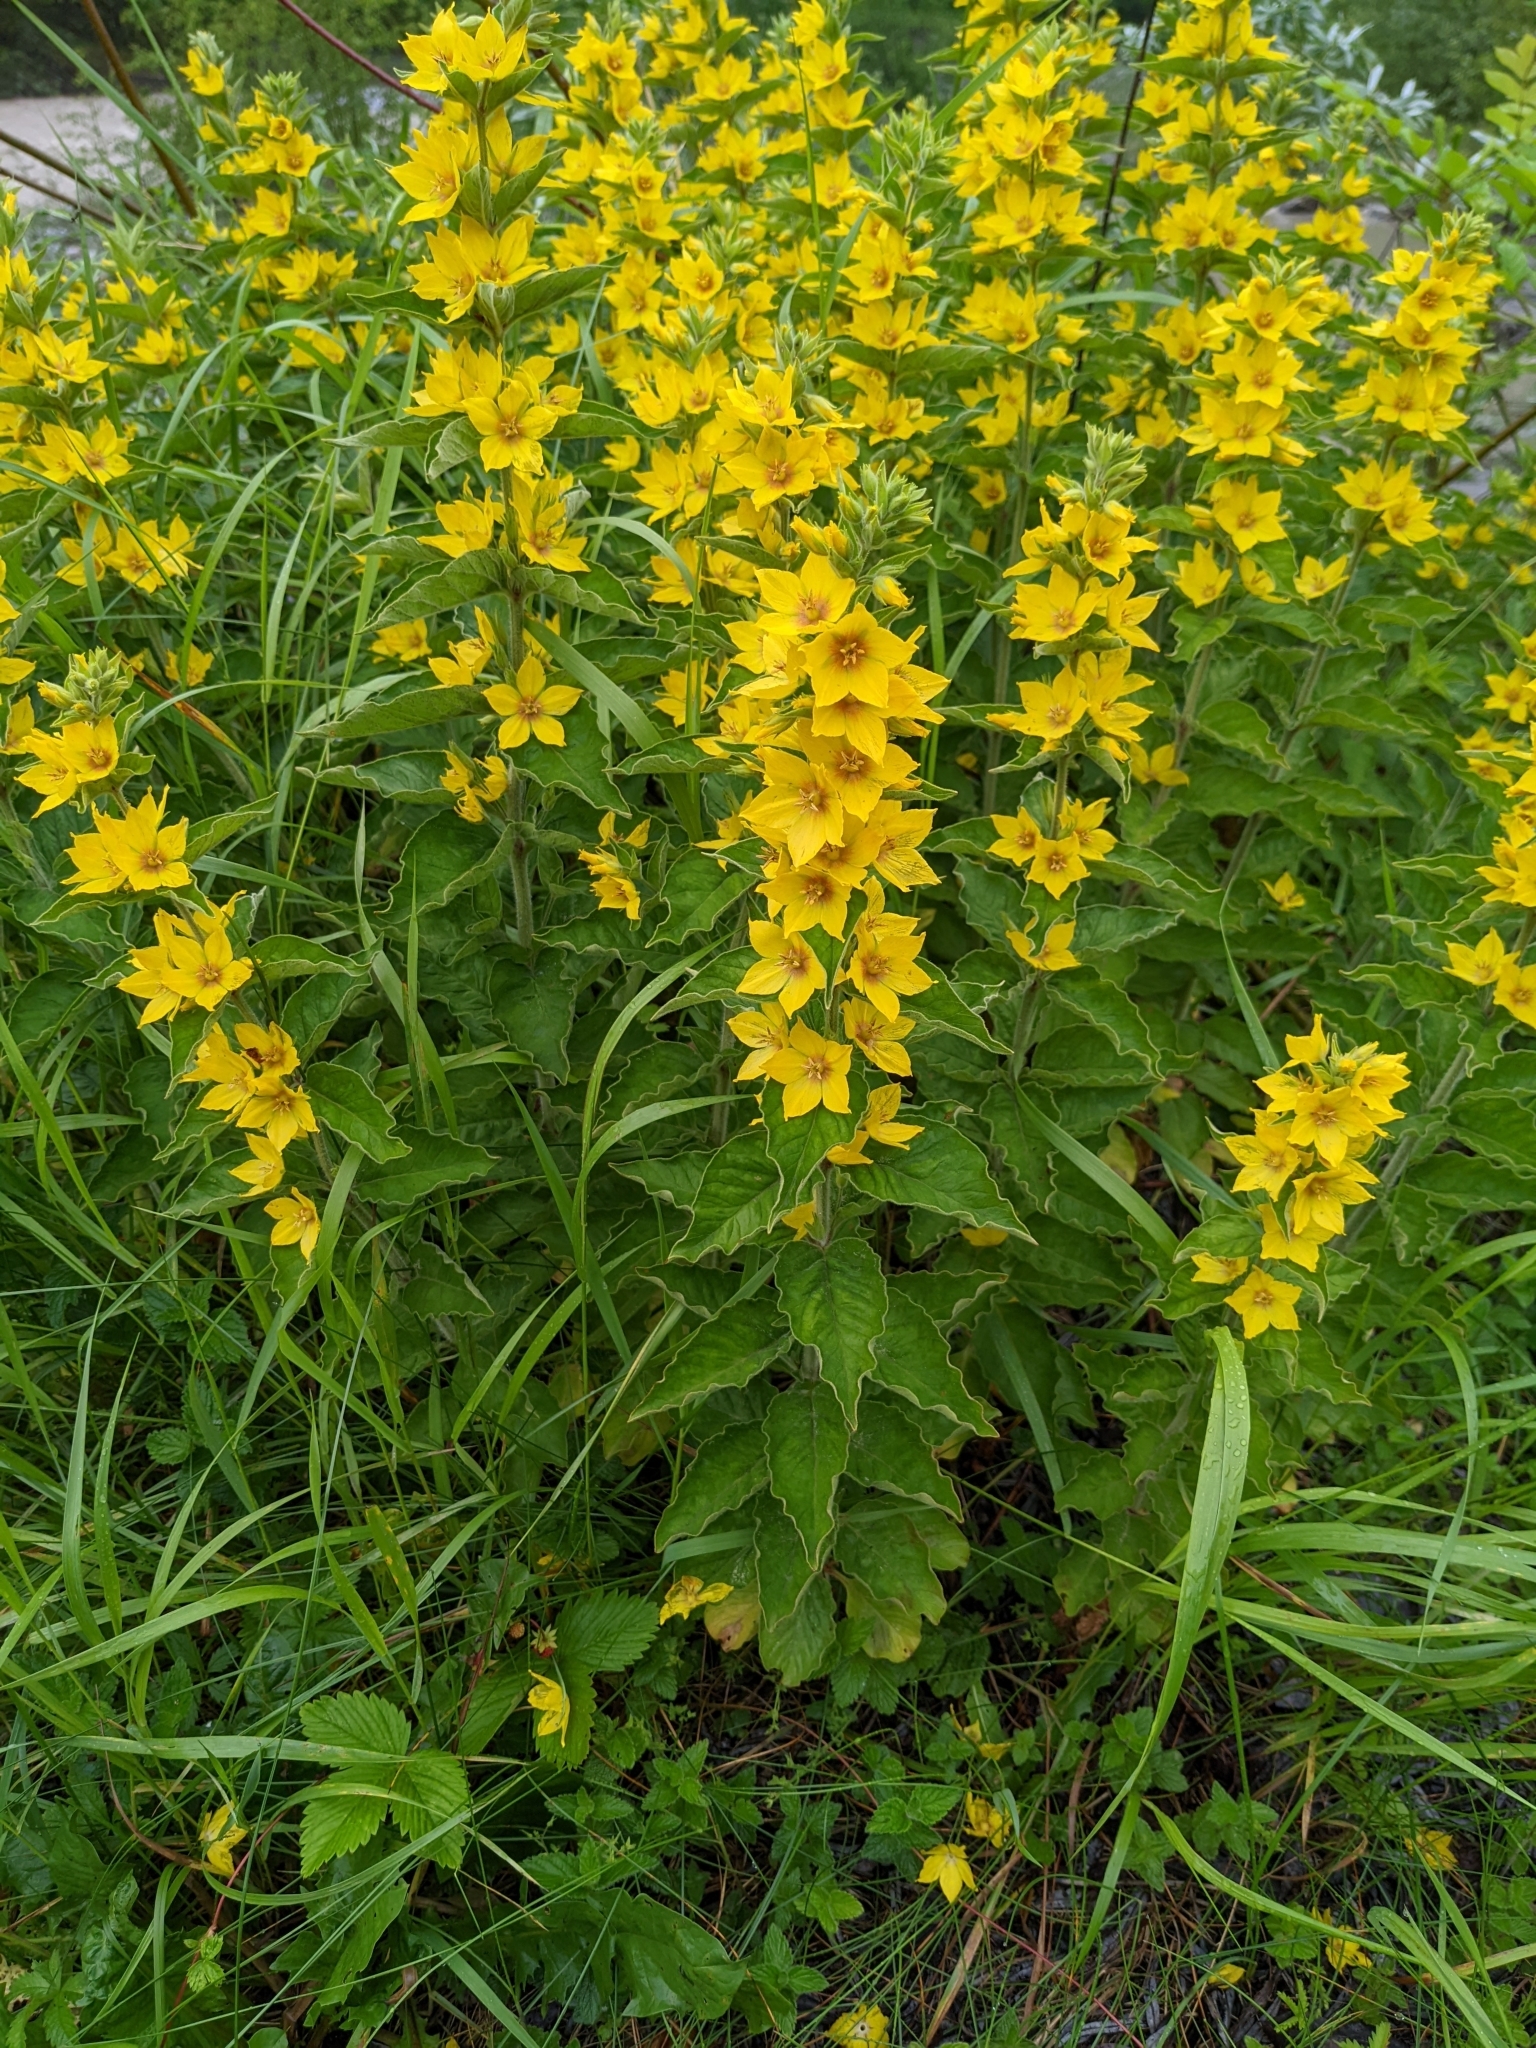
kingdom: Plantae
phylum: Tracheophyta
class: Magnoliopsida
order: Ericales
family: Primulaceae
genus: Lysimachia
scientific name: Lysimachia punctata
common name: Dotted loosestrife
